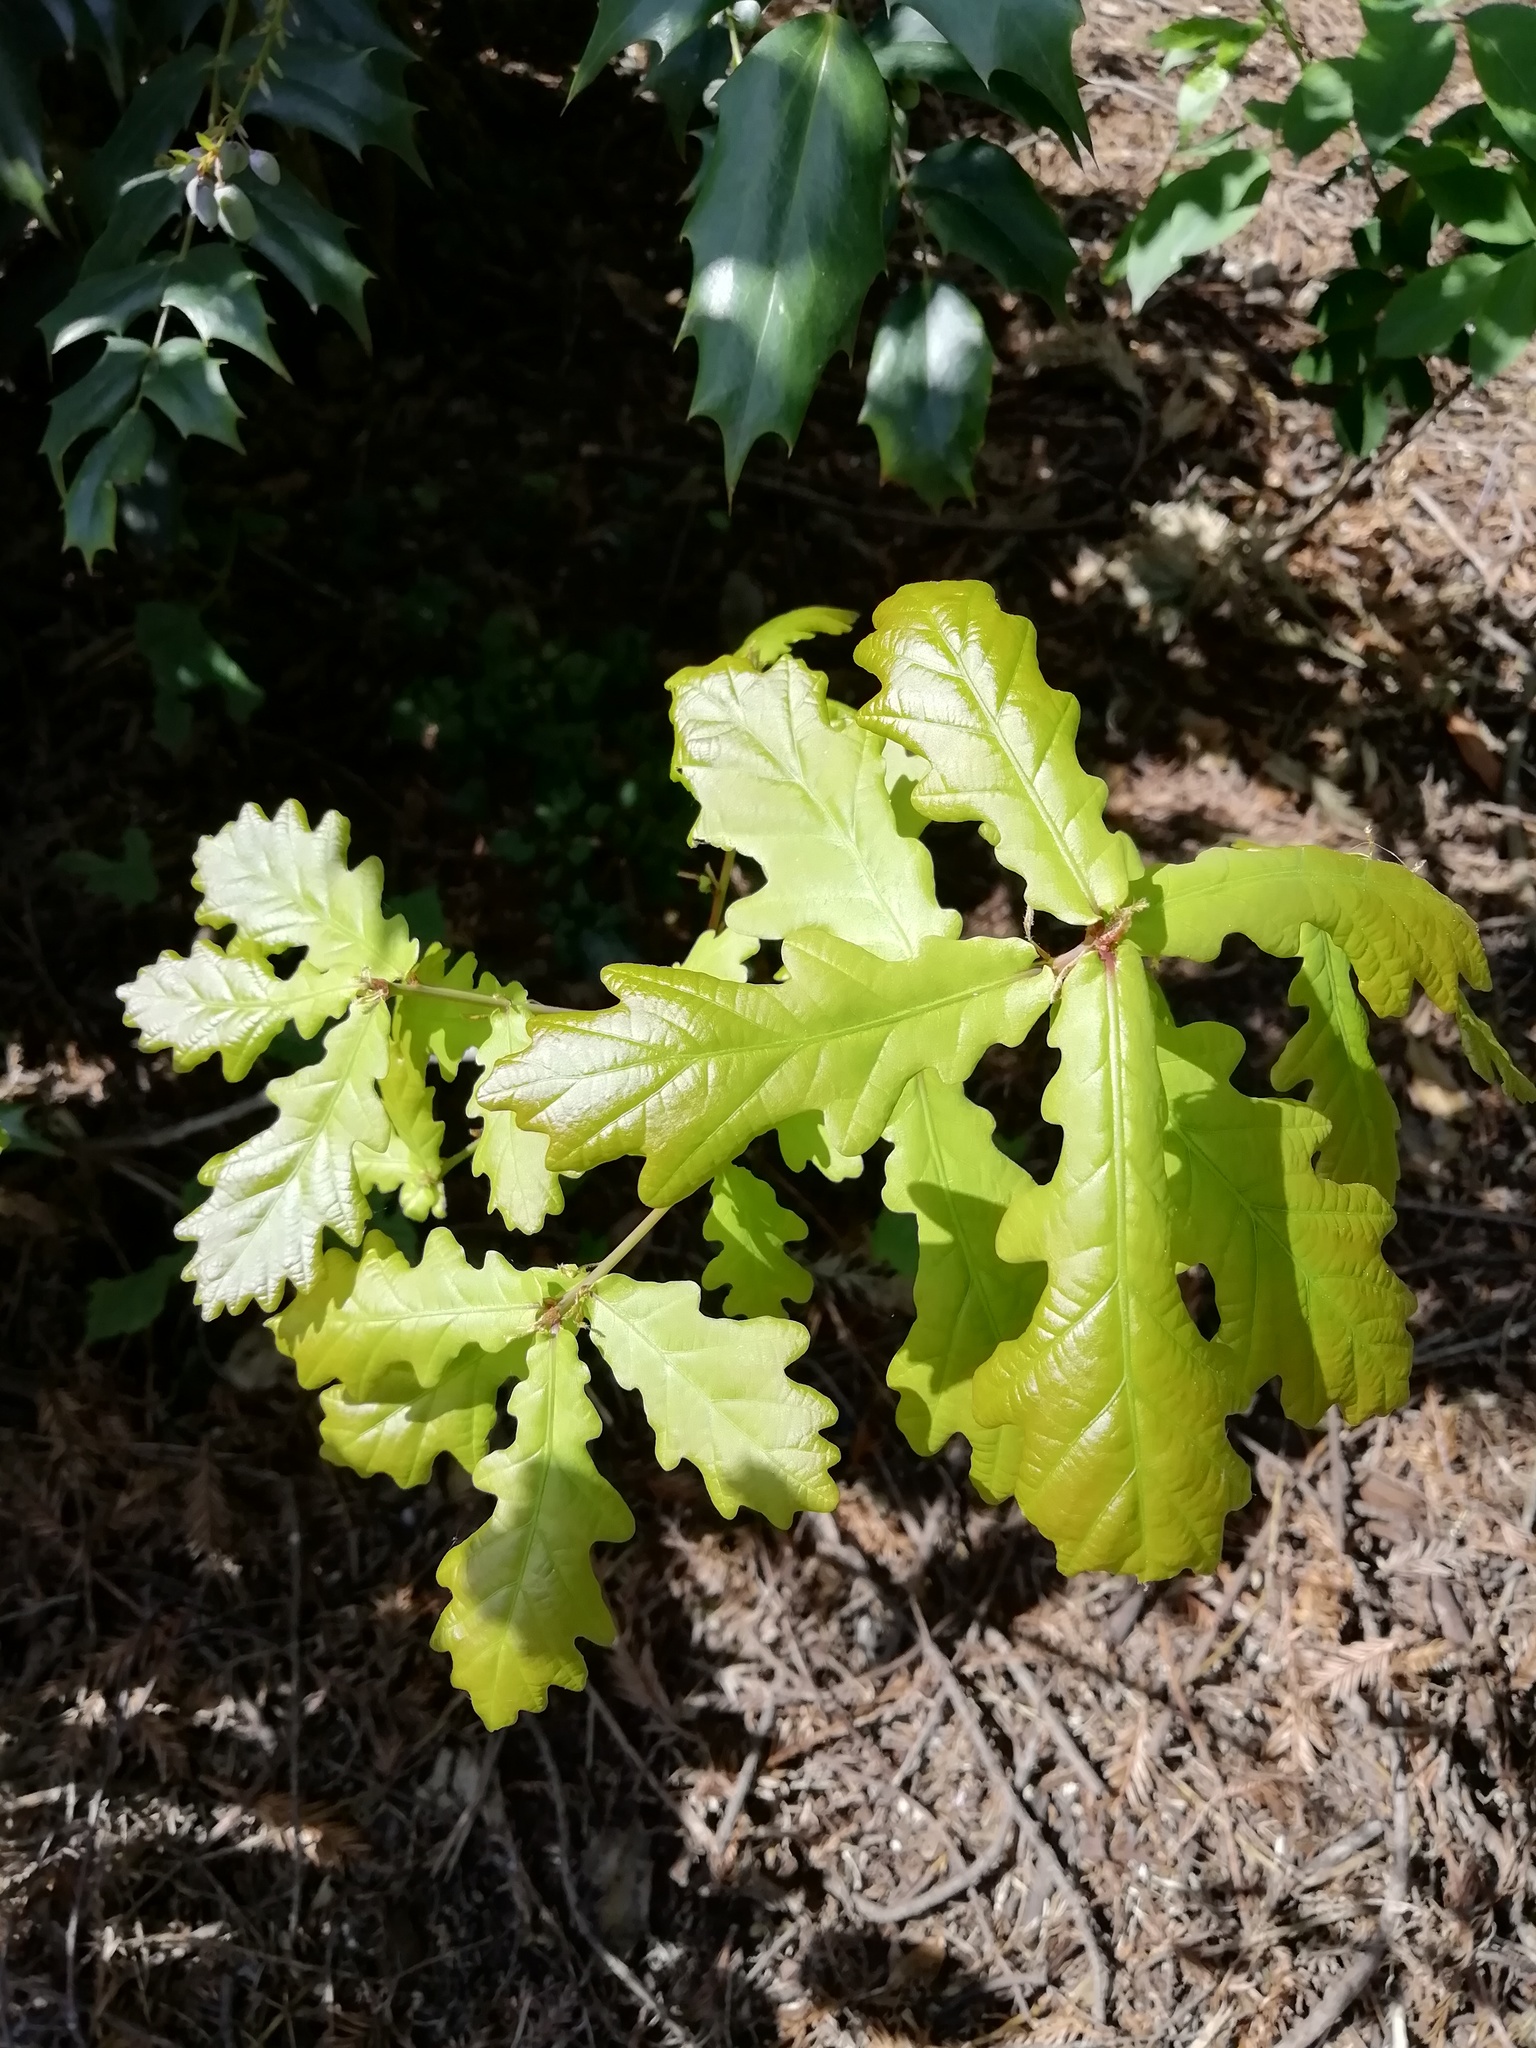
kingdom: Plantae
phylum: Tracheophyta
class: Magnoliopsida
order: Fagales
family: Fagaceae
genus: Quercus
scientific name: Quercus robur
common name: Pedunculate oak
